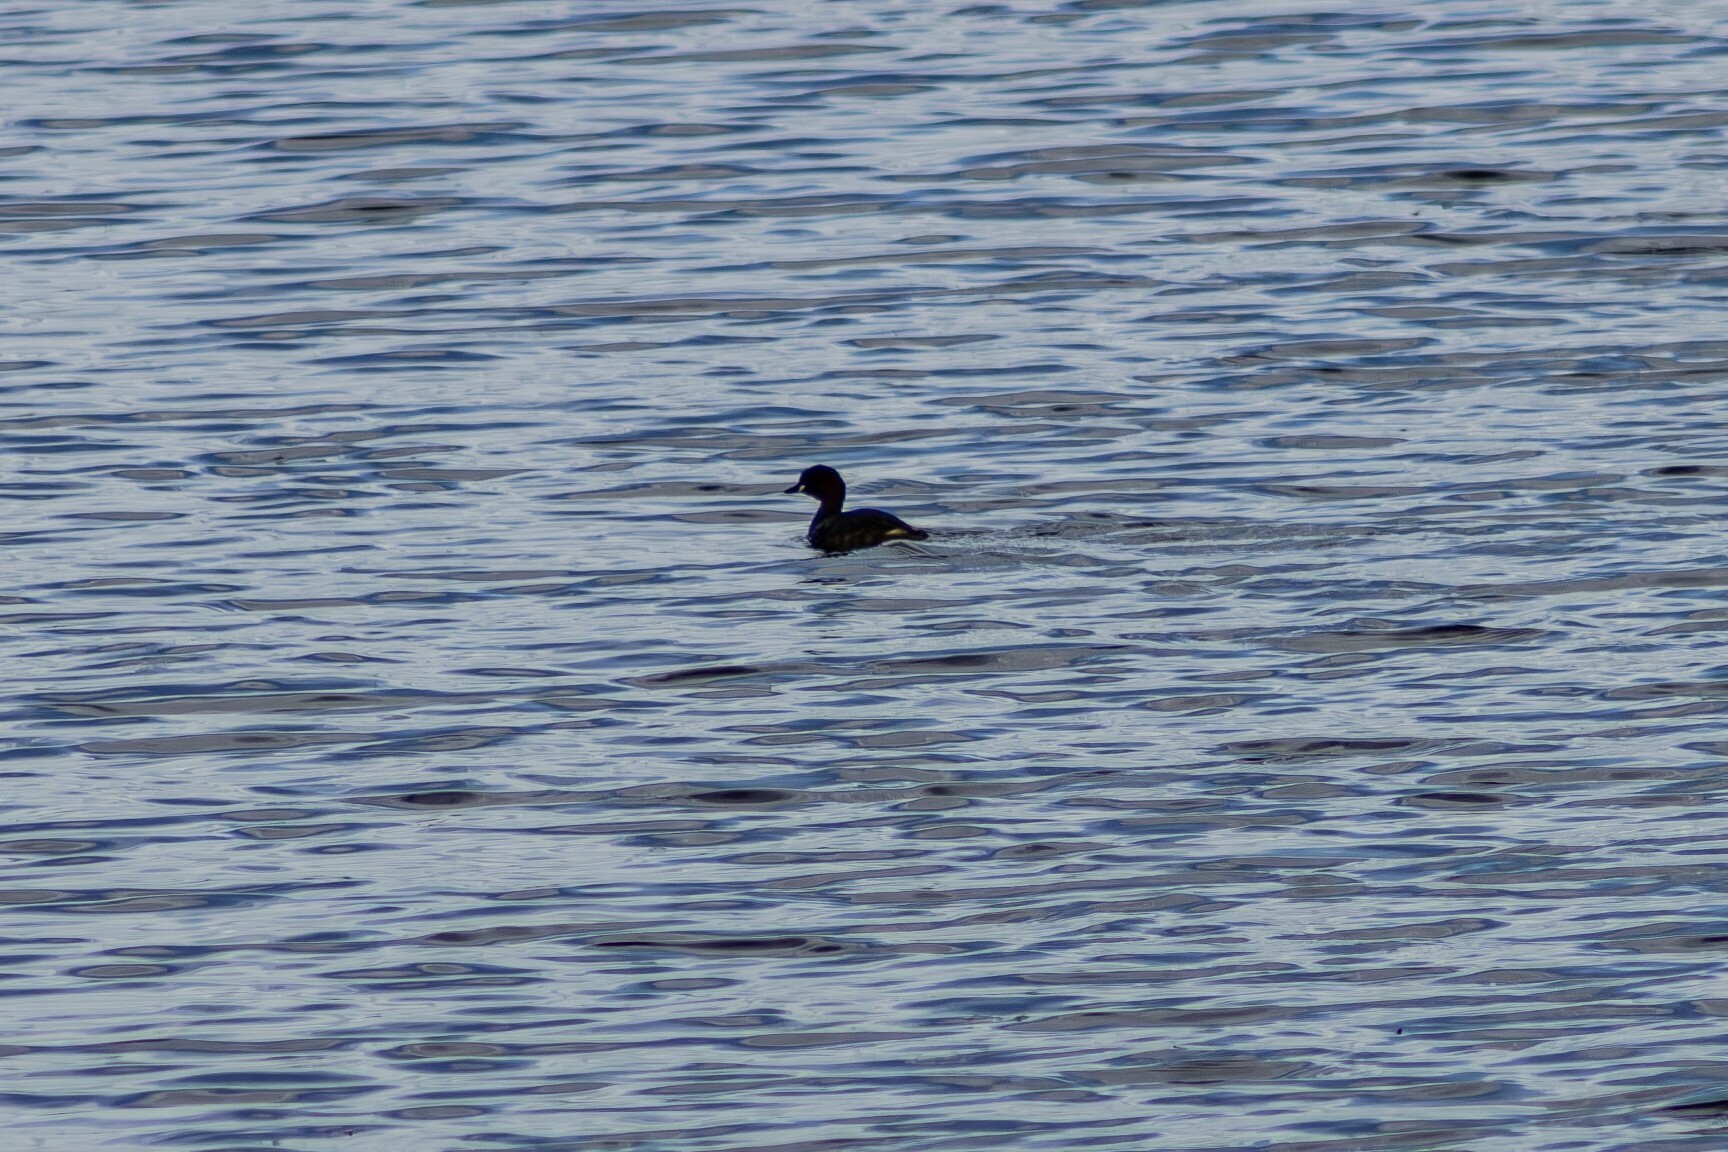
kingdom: Animalia
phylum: Chordata
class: Aves
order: Podicipediformes
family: Podicipedidae
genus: Tachybaptus
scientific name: Tachybaptus ruficollis
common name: Little grebe
